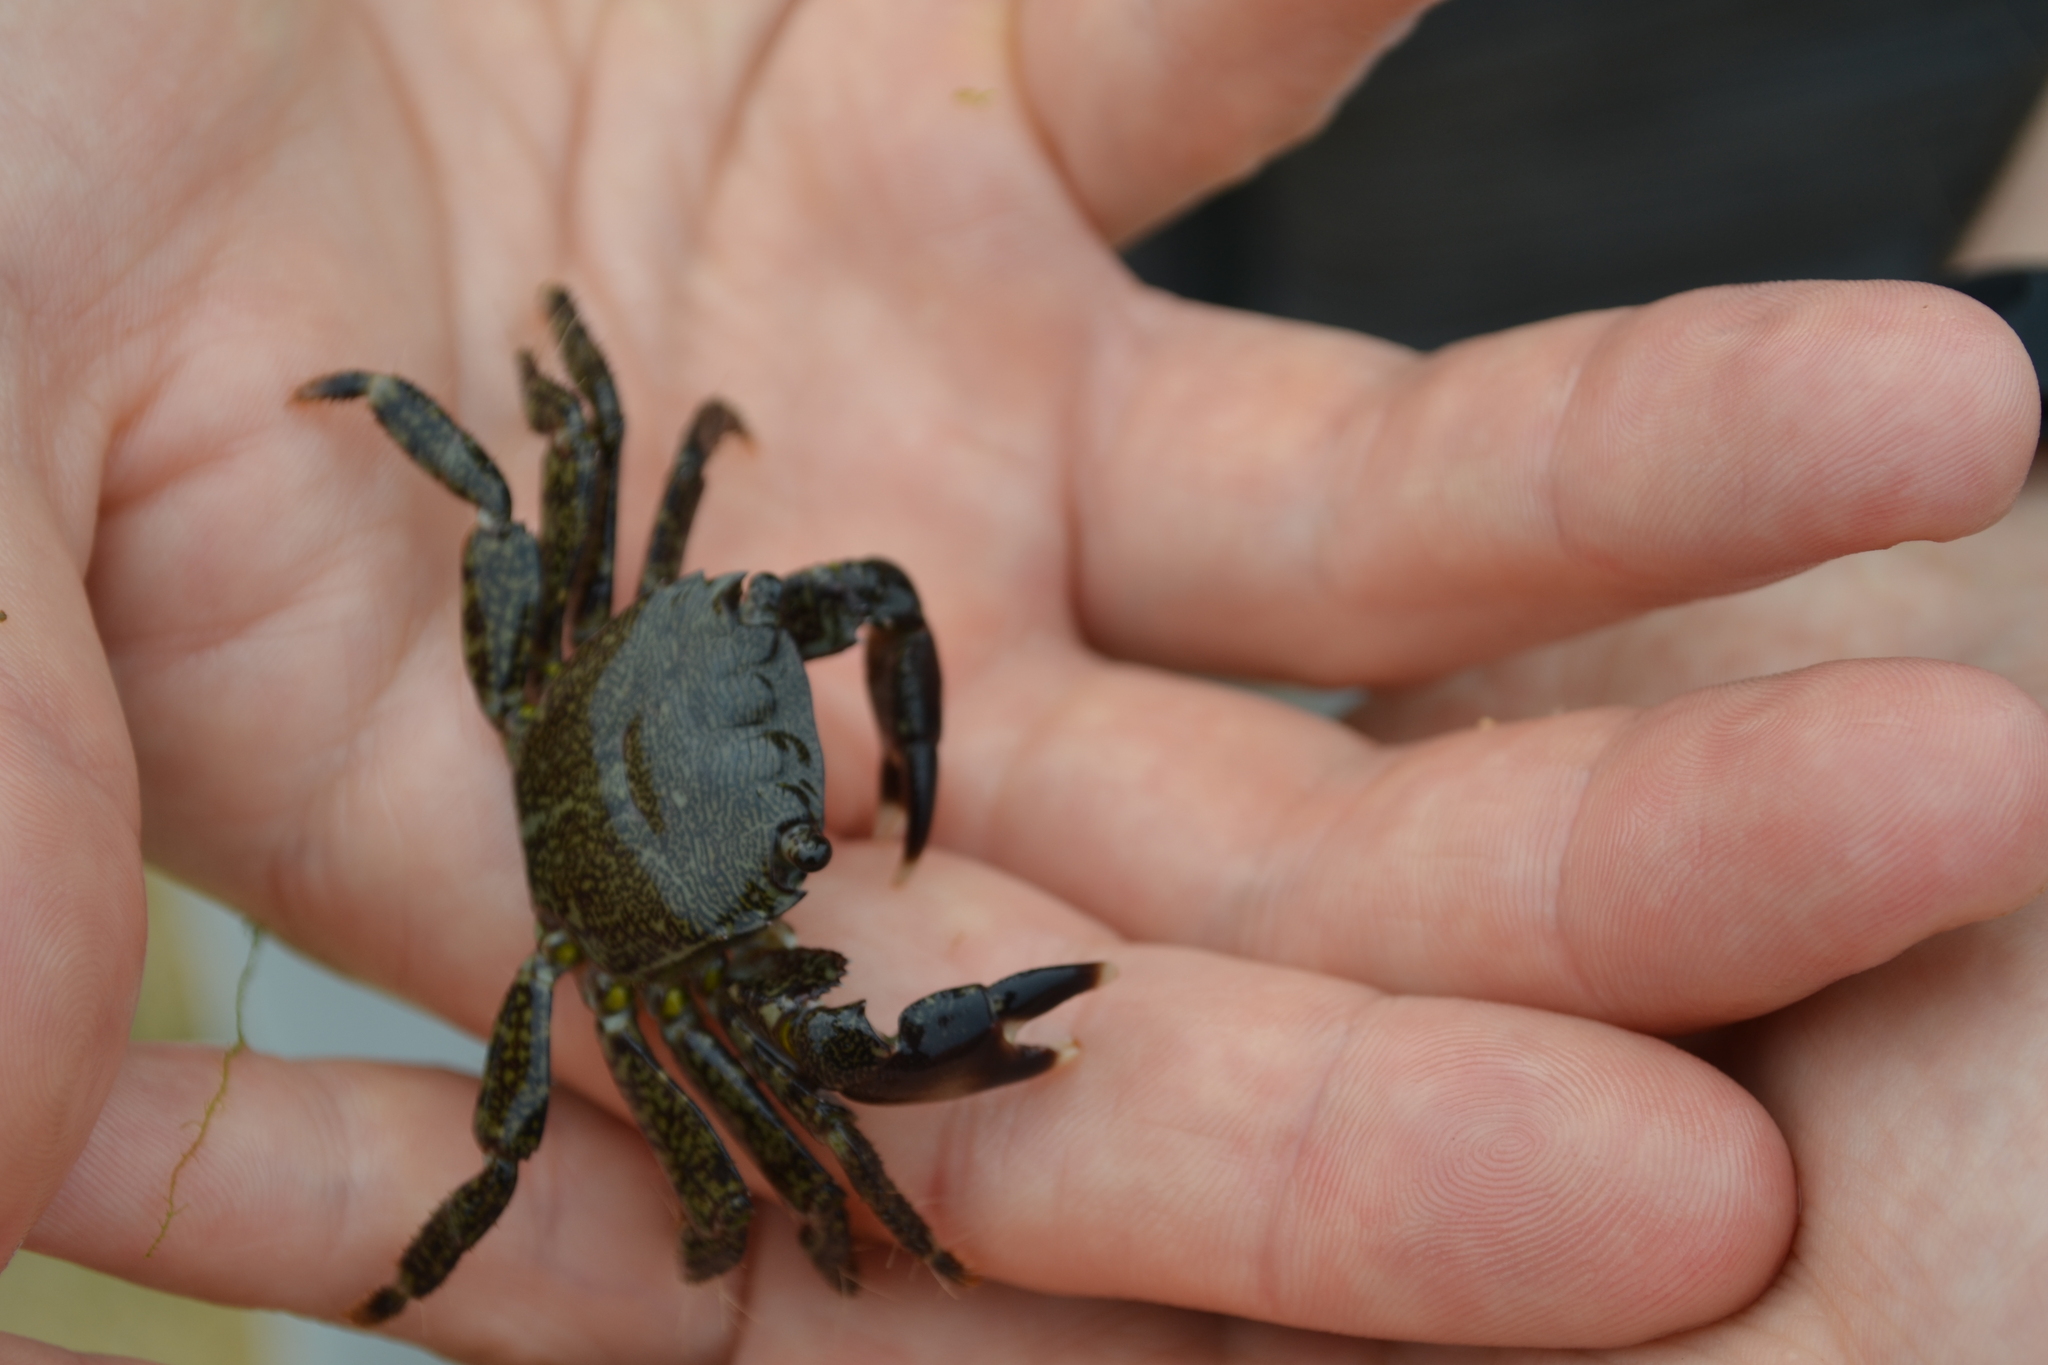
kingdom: Animalia
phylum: Arthropoda
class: Malacostraca
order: Decapoda
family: Grapsidae
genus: Pachygrapsus
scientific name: Pachygrapsus marmoratus
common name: Marbled rock crab
